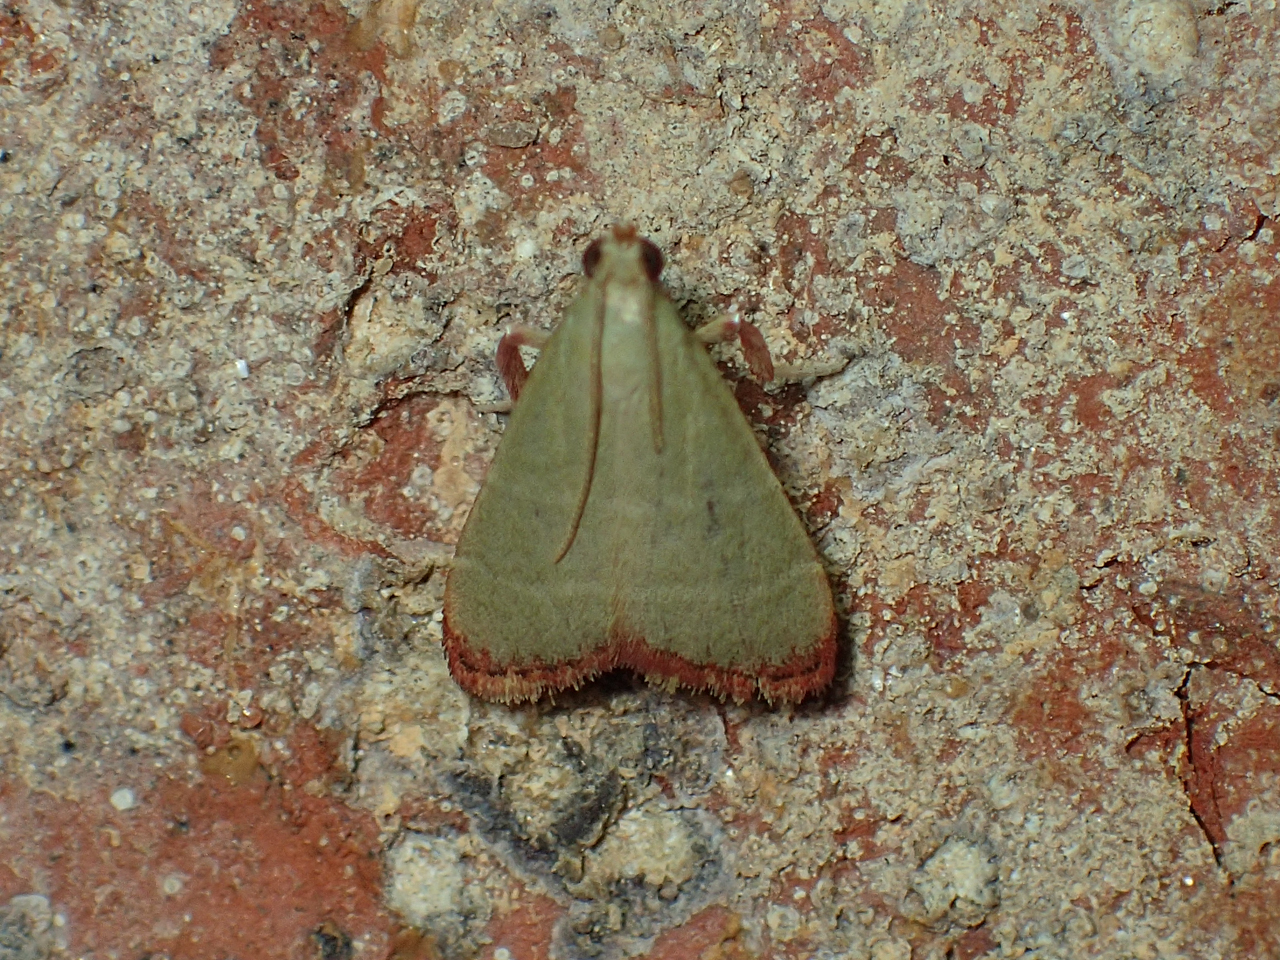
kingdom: Animalia
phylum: Arthropoda
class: Insecta
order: Lepidoptera
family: Pyralidae
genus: Arta
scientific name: Arta olivalis
